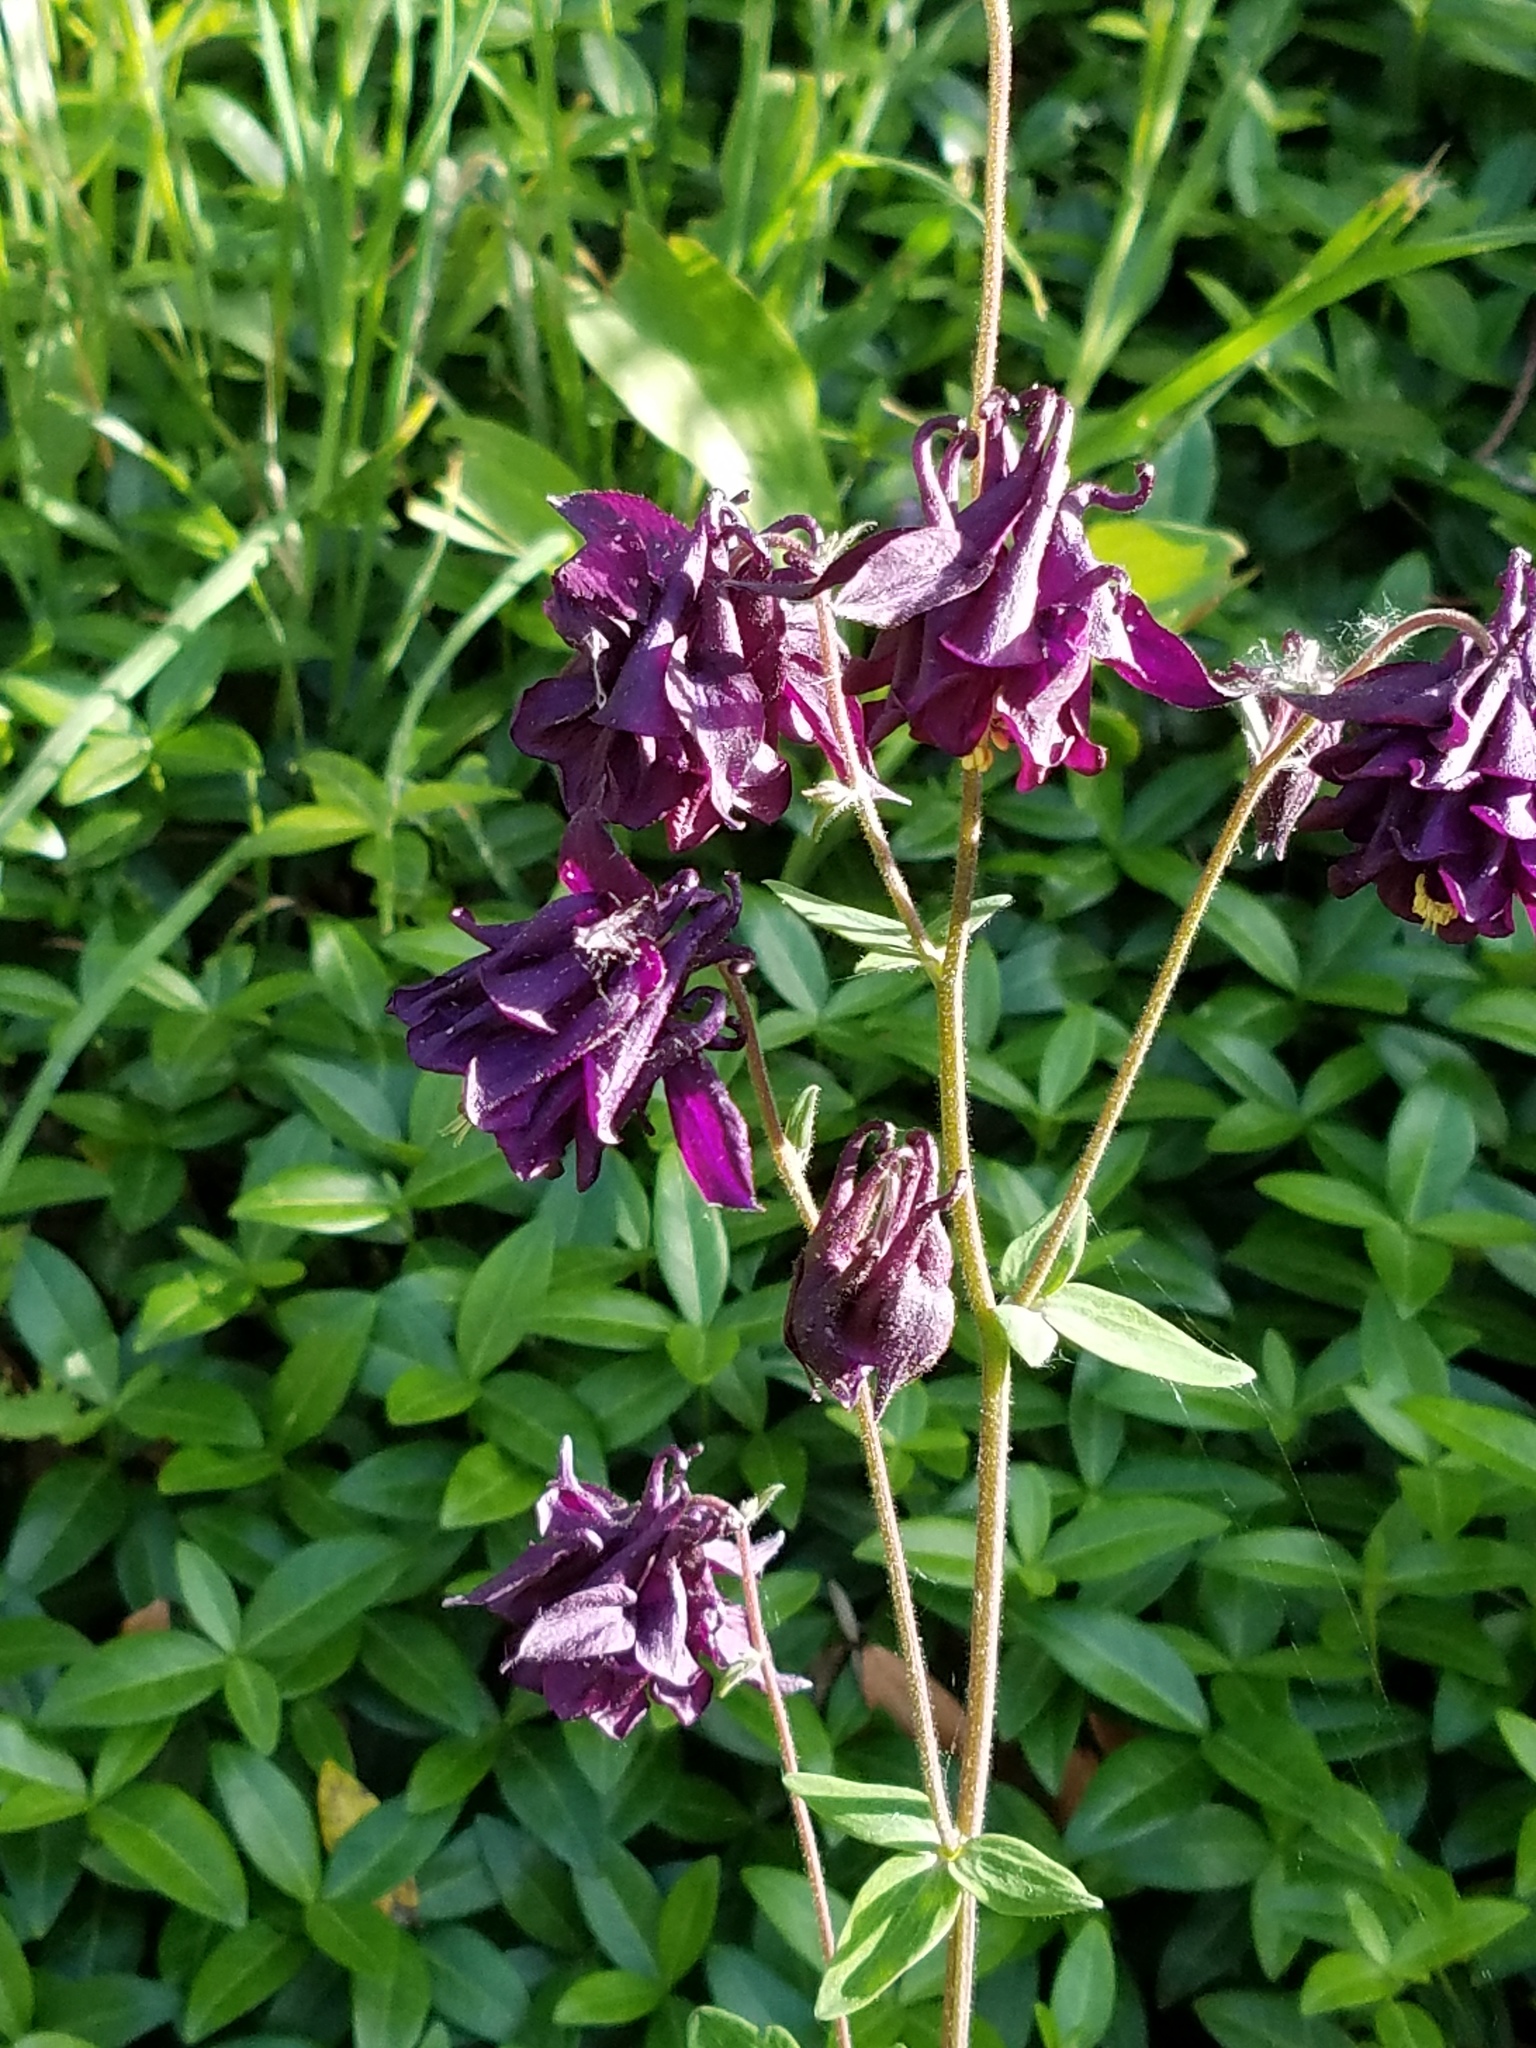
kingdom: Plantae
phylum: Tracheophyta
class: Magnoliopsida
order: Ranunculales
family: Ranunculaceae
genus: Aquilegia
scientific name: Aquilegia vulgaris
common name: Columbine
